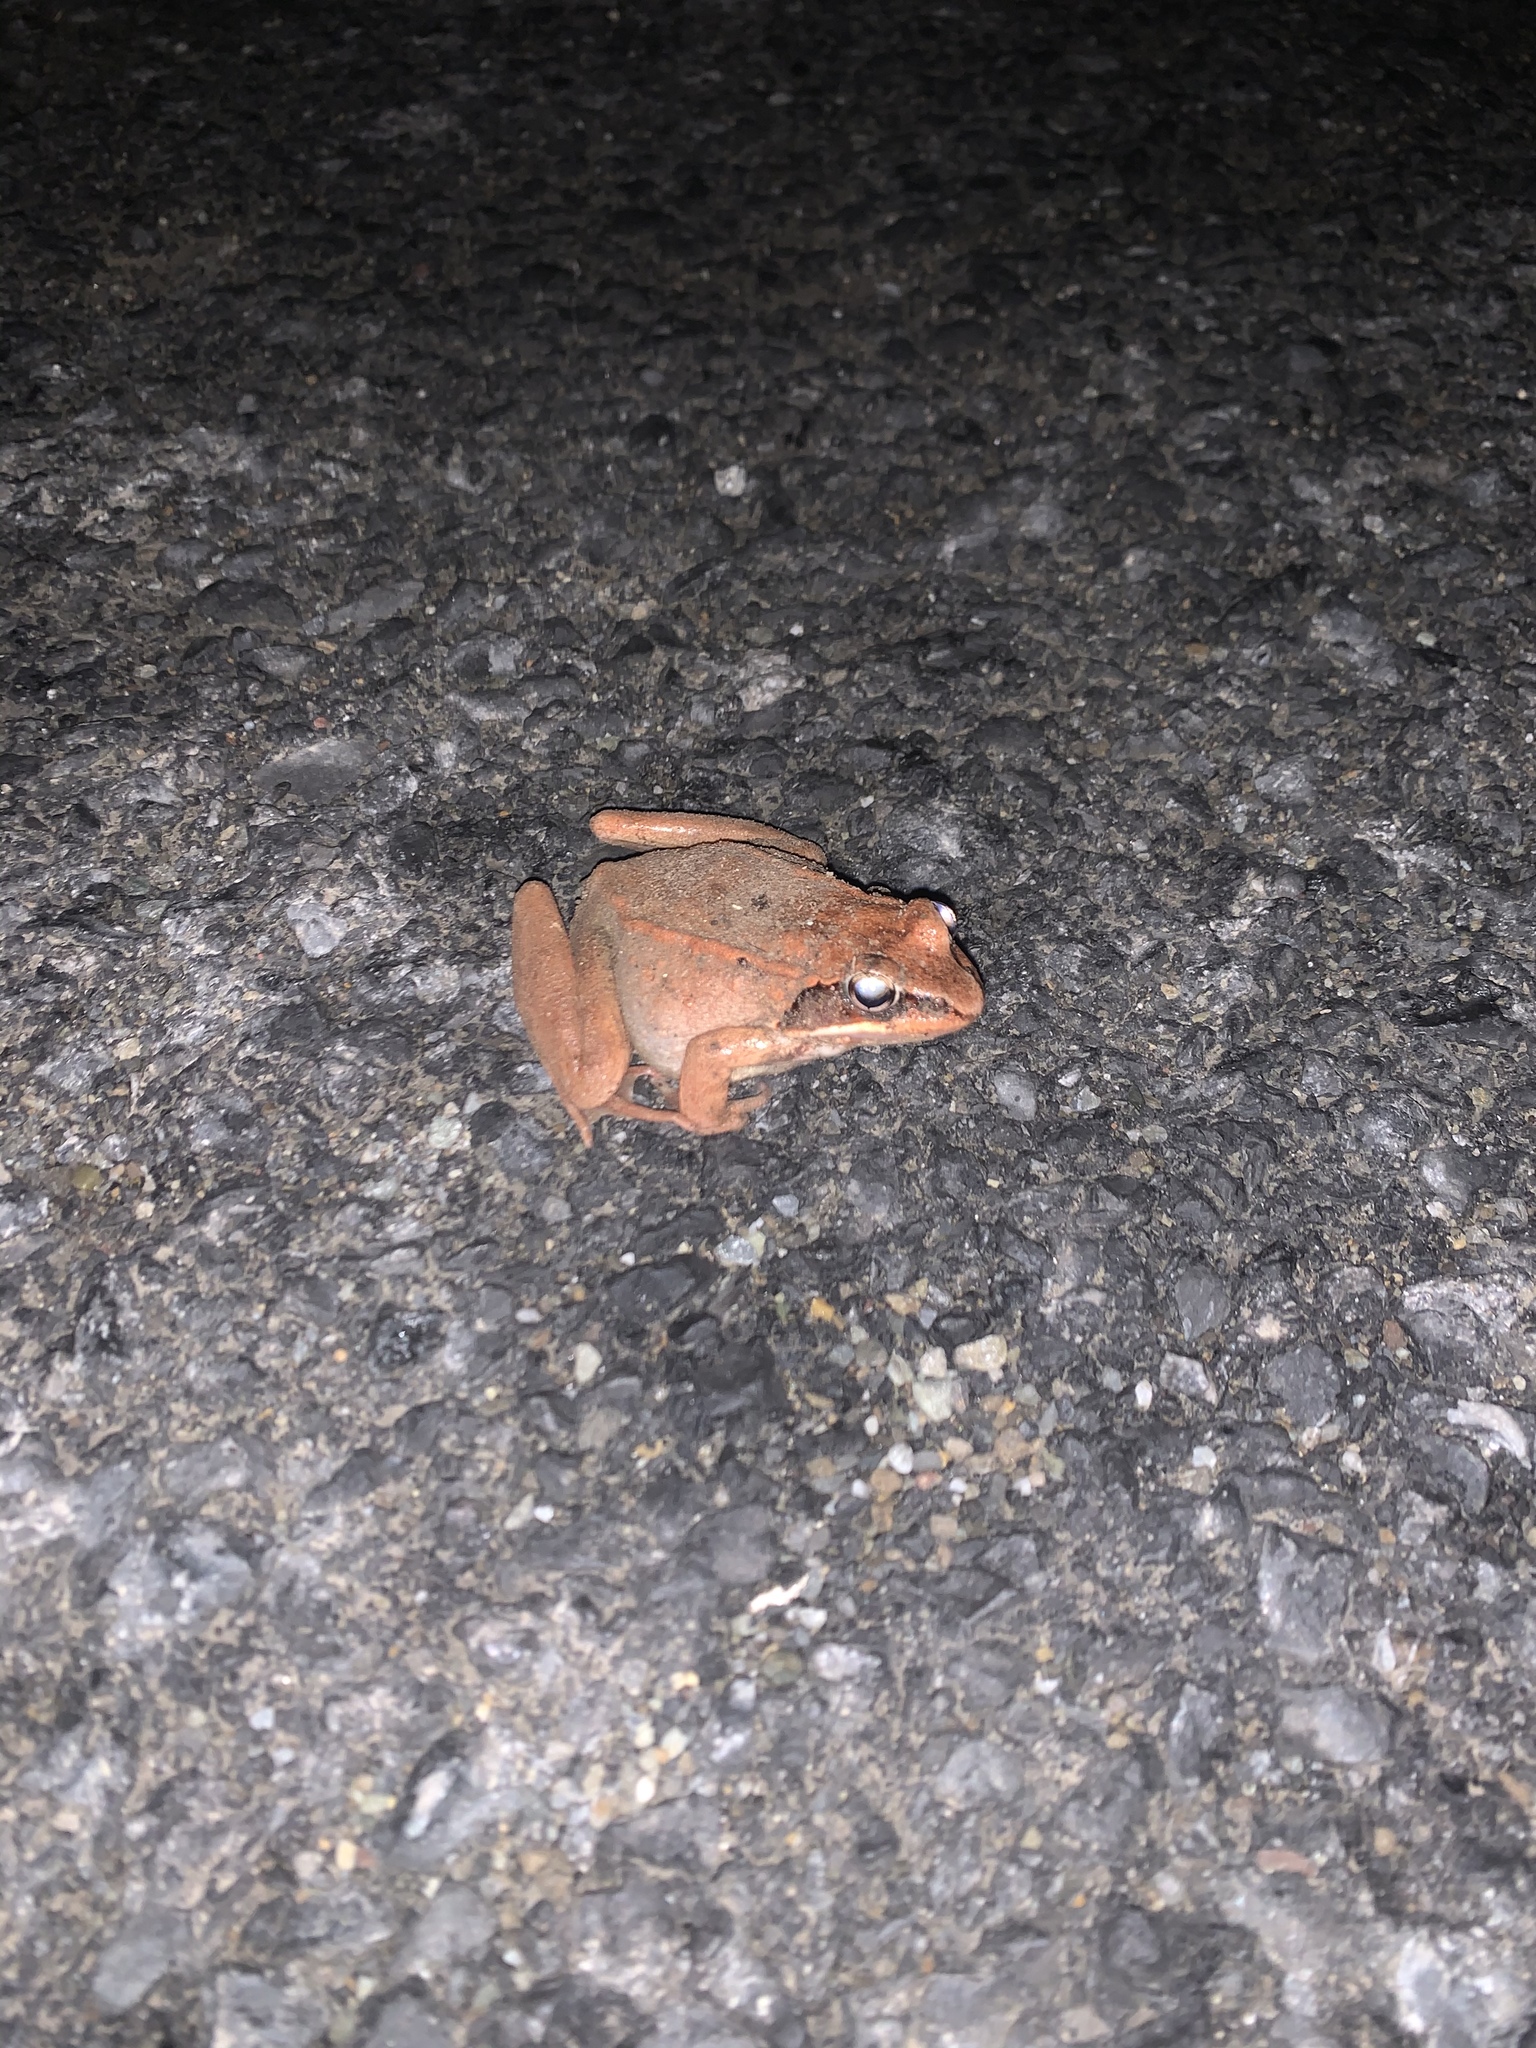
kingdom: Animalia
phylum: Chordata
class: Amphibia
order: Anura
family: Ranidae
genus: Lithobates
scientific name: Lithobates sylvaticus
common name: Wood frog
